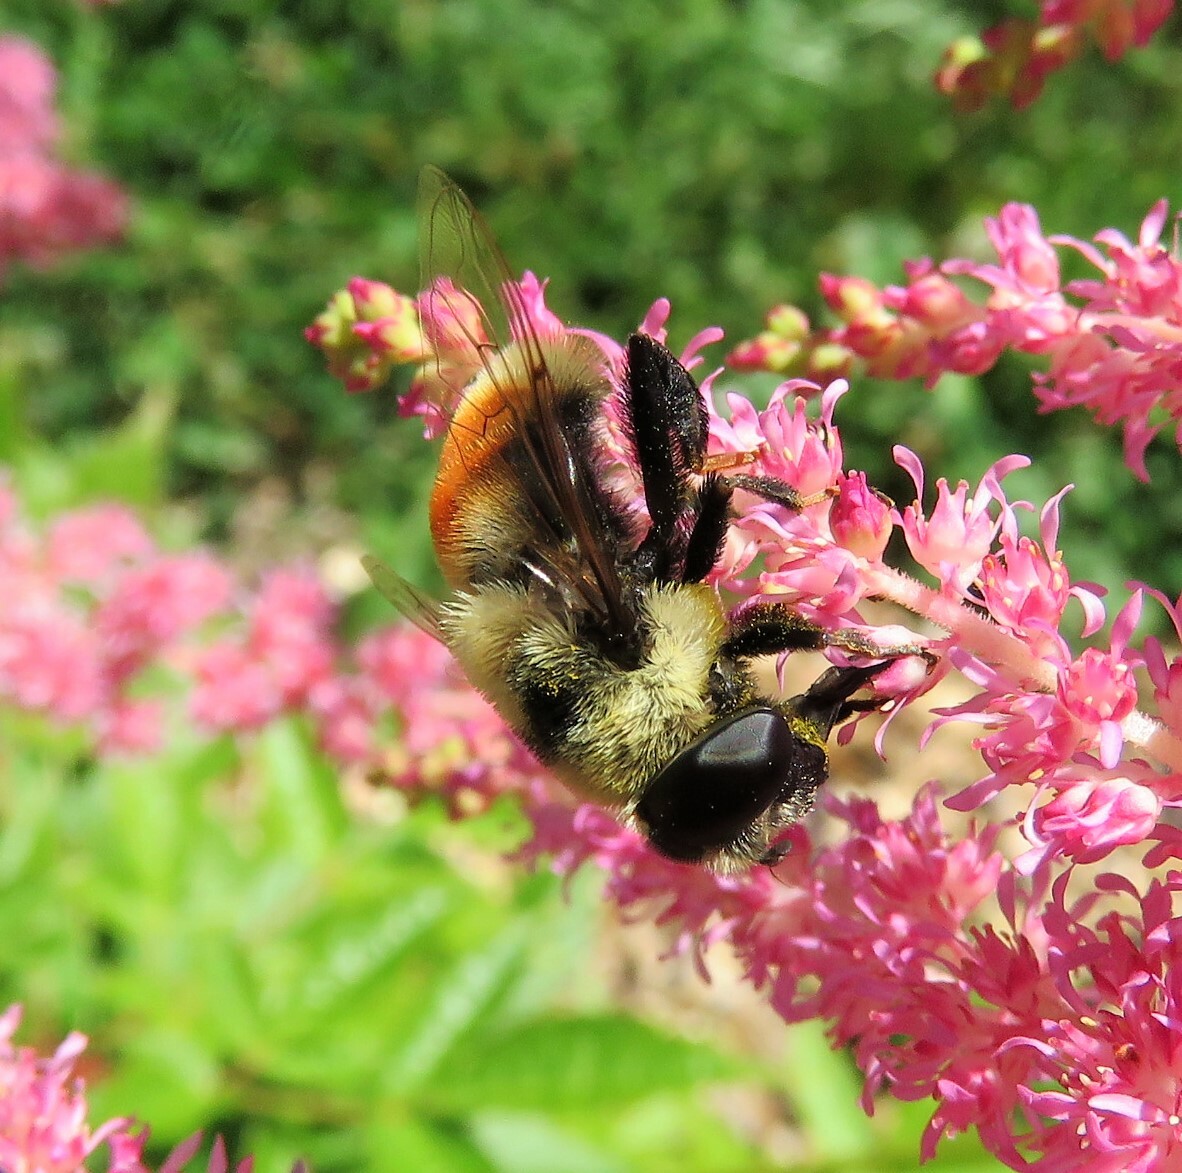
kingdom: Animalia
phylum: Arthropoda
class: Insecta
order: Diptera
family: Syrphidae
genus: Eristalis
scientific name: Eristalis flavipes
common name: Orange-legged drone fly
